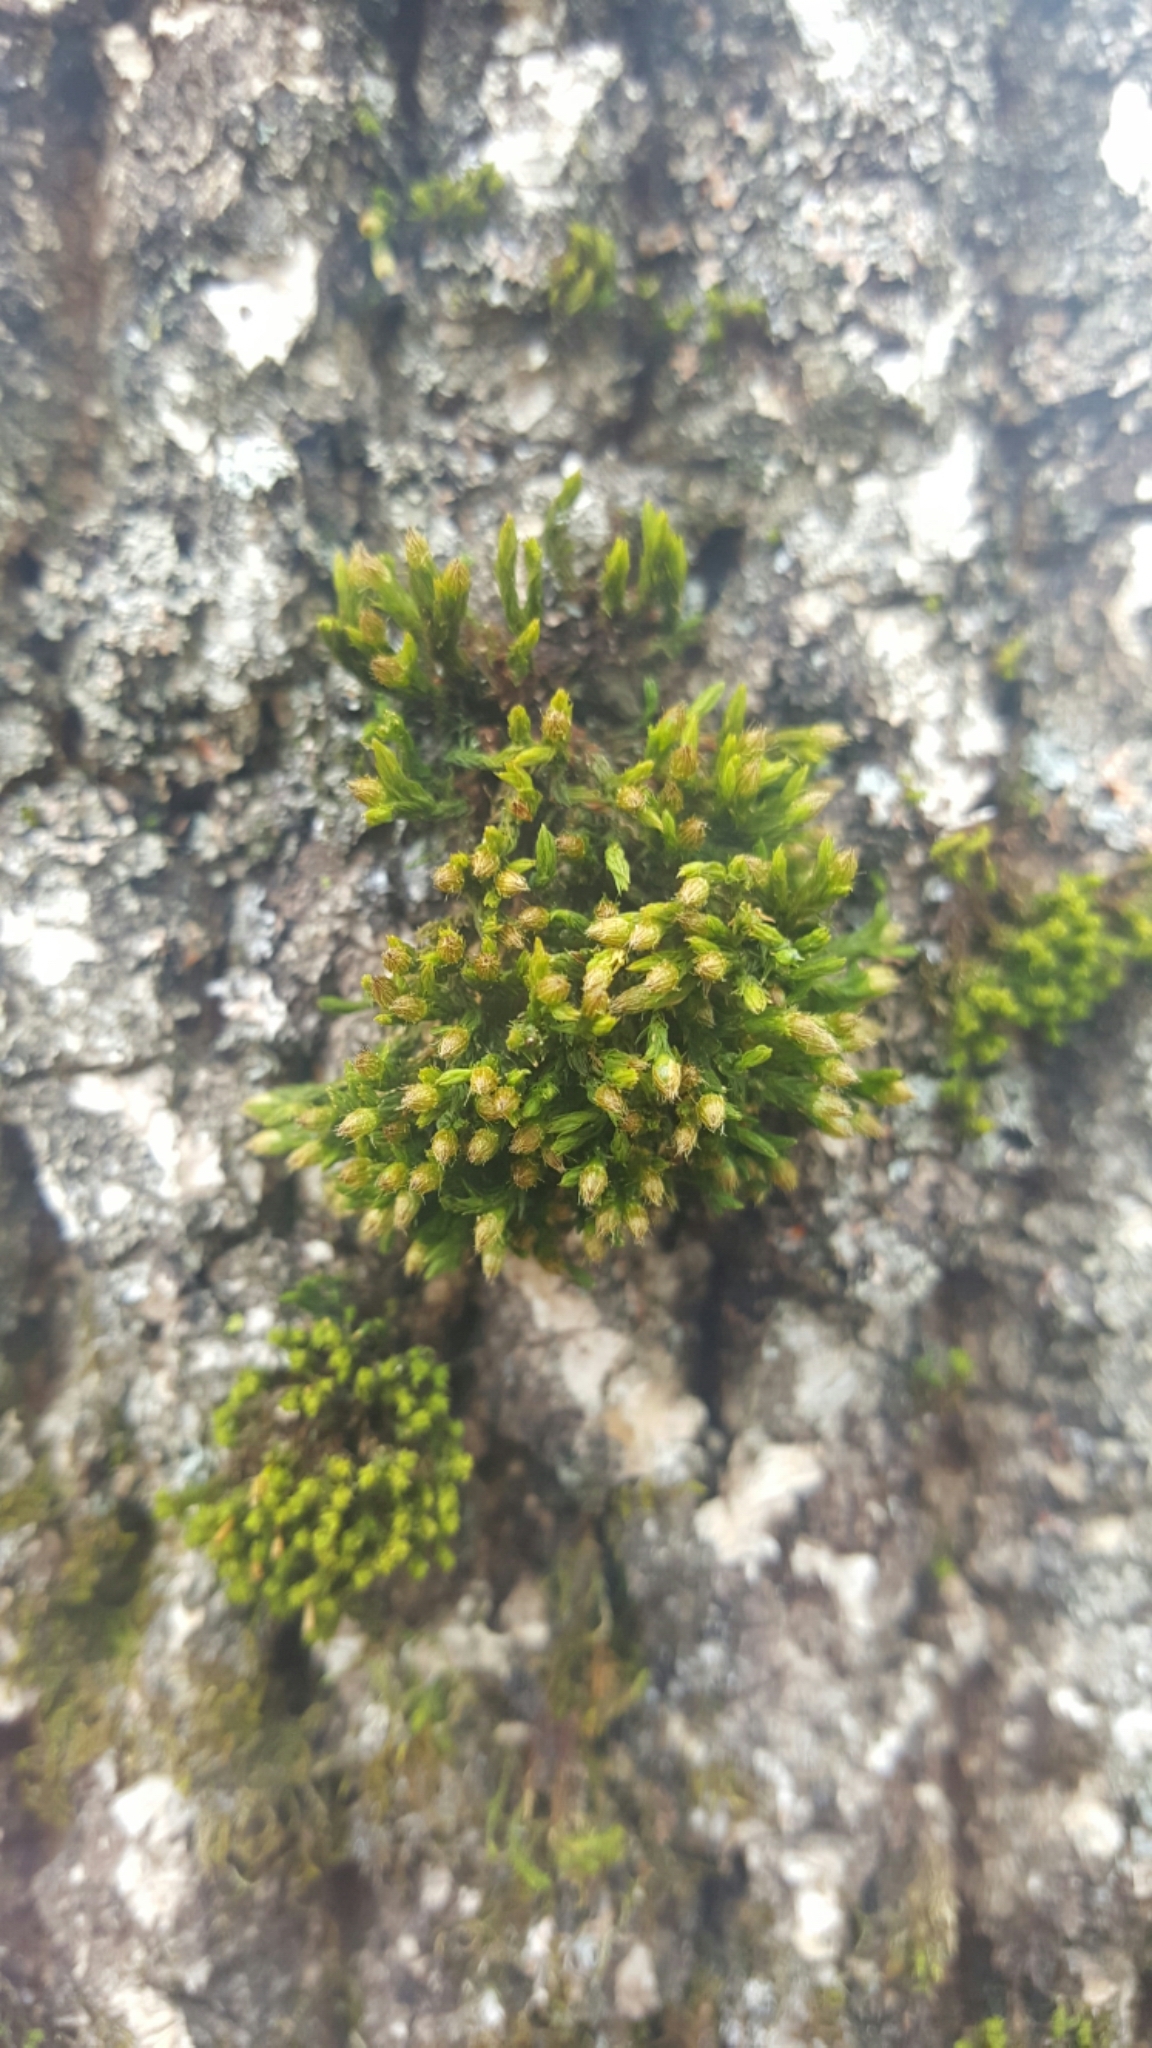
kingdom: Plantae
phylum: Bryophyta
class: Bryopsida
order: Orthotrichales
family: Orthotrichaceae
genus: Orthotrichum
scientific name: Orthotrichum stellatum
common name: Starlike bristle moss
